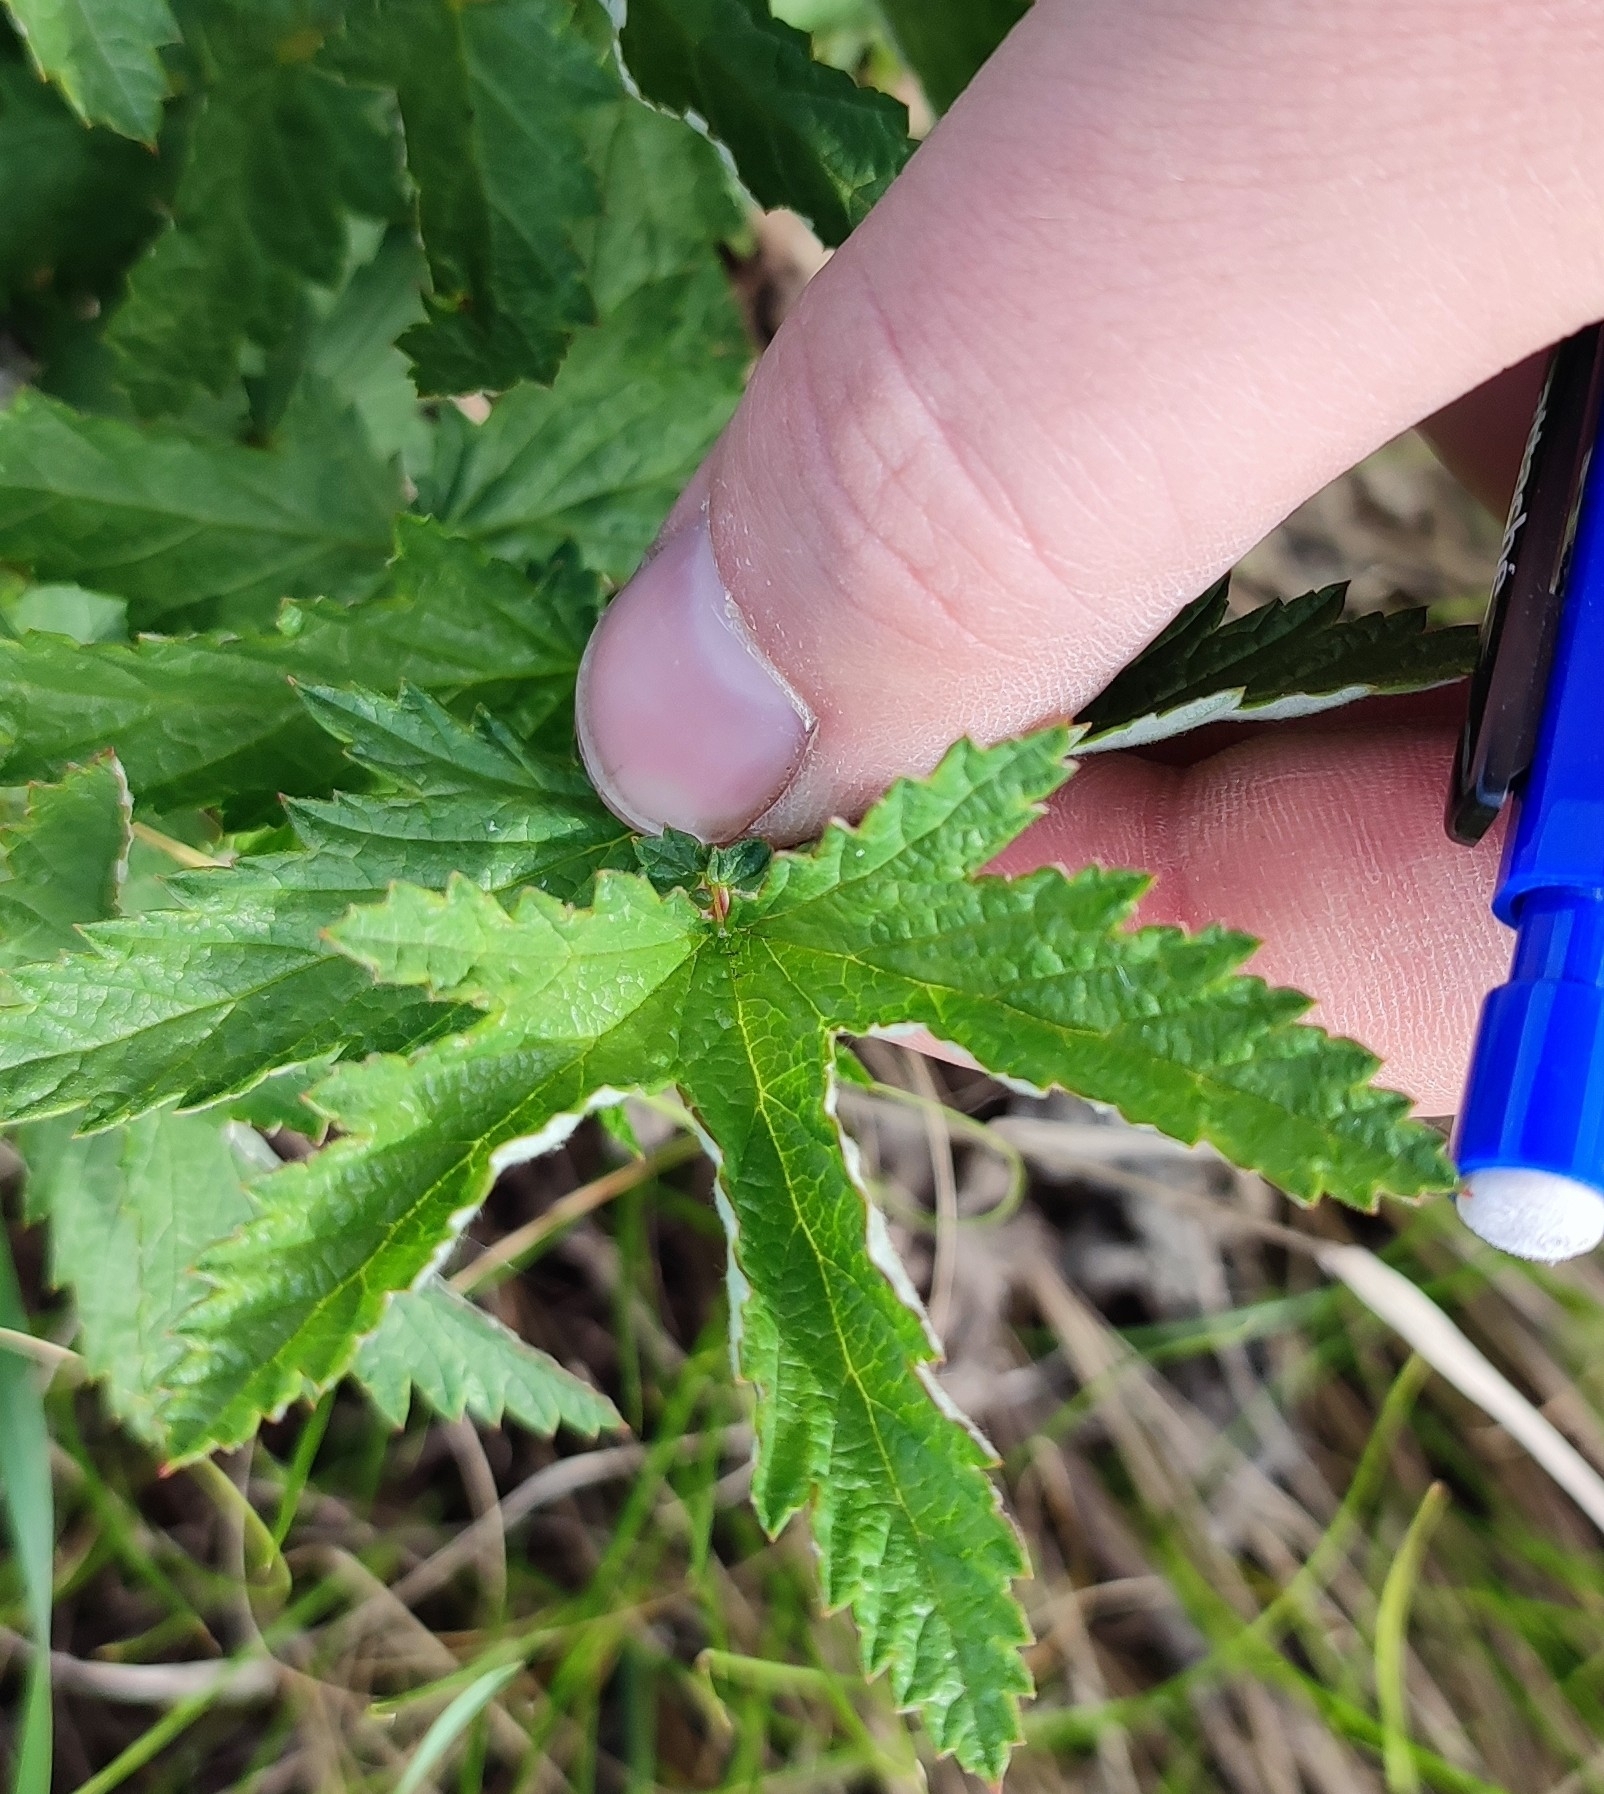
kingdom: Plantae
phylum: Tracheophyta
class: Magnoliopsida
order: Rosales
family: Rosaceae
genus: Filipendula
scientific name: Filipendula ulmaria
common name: Meadowsweet
